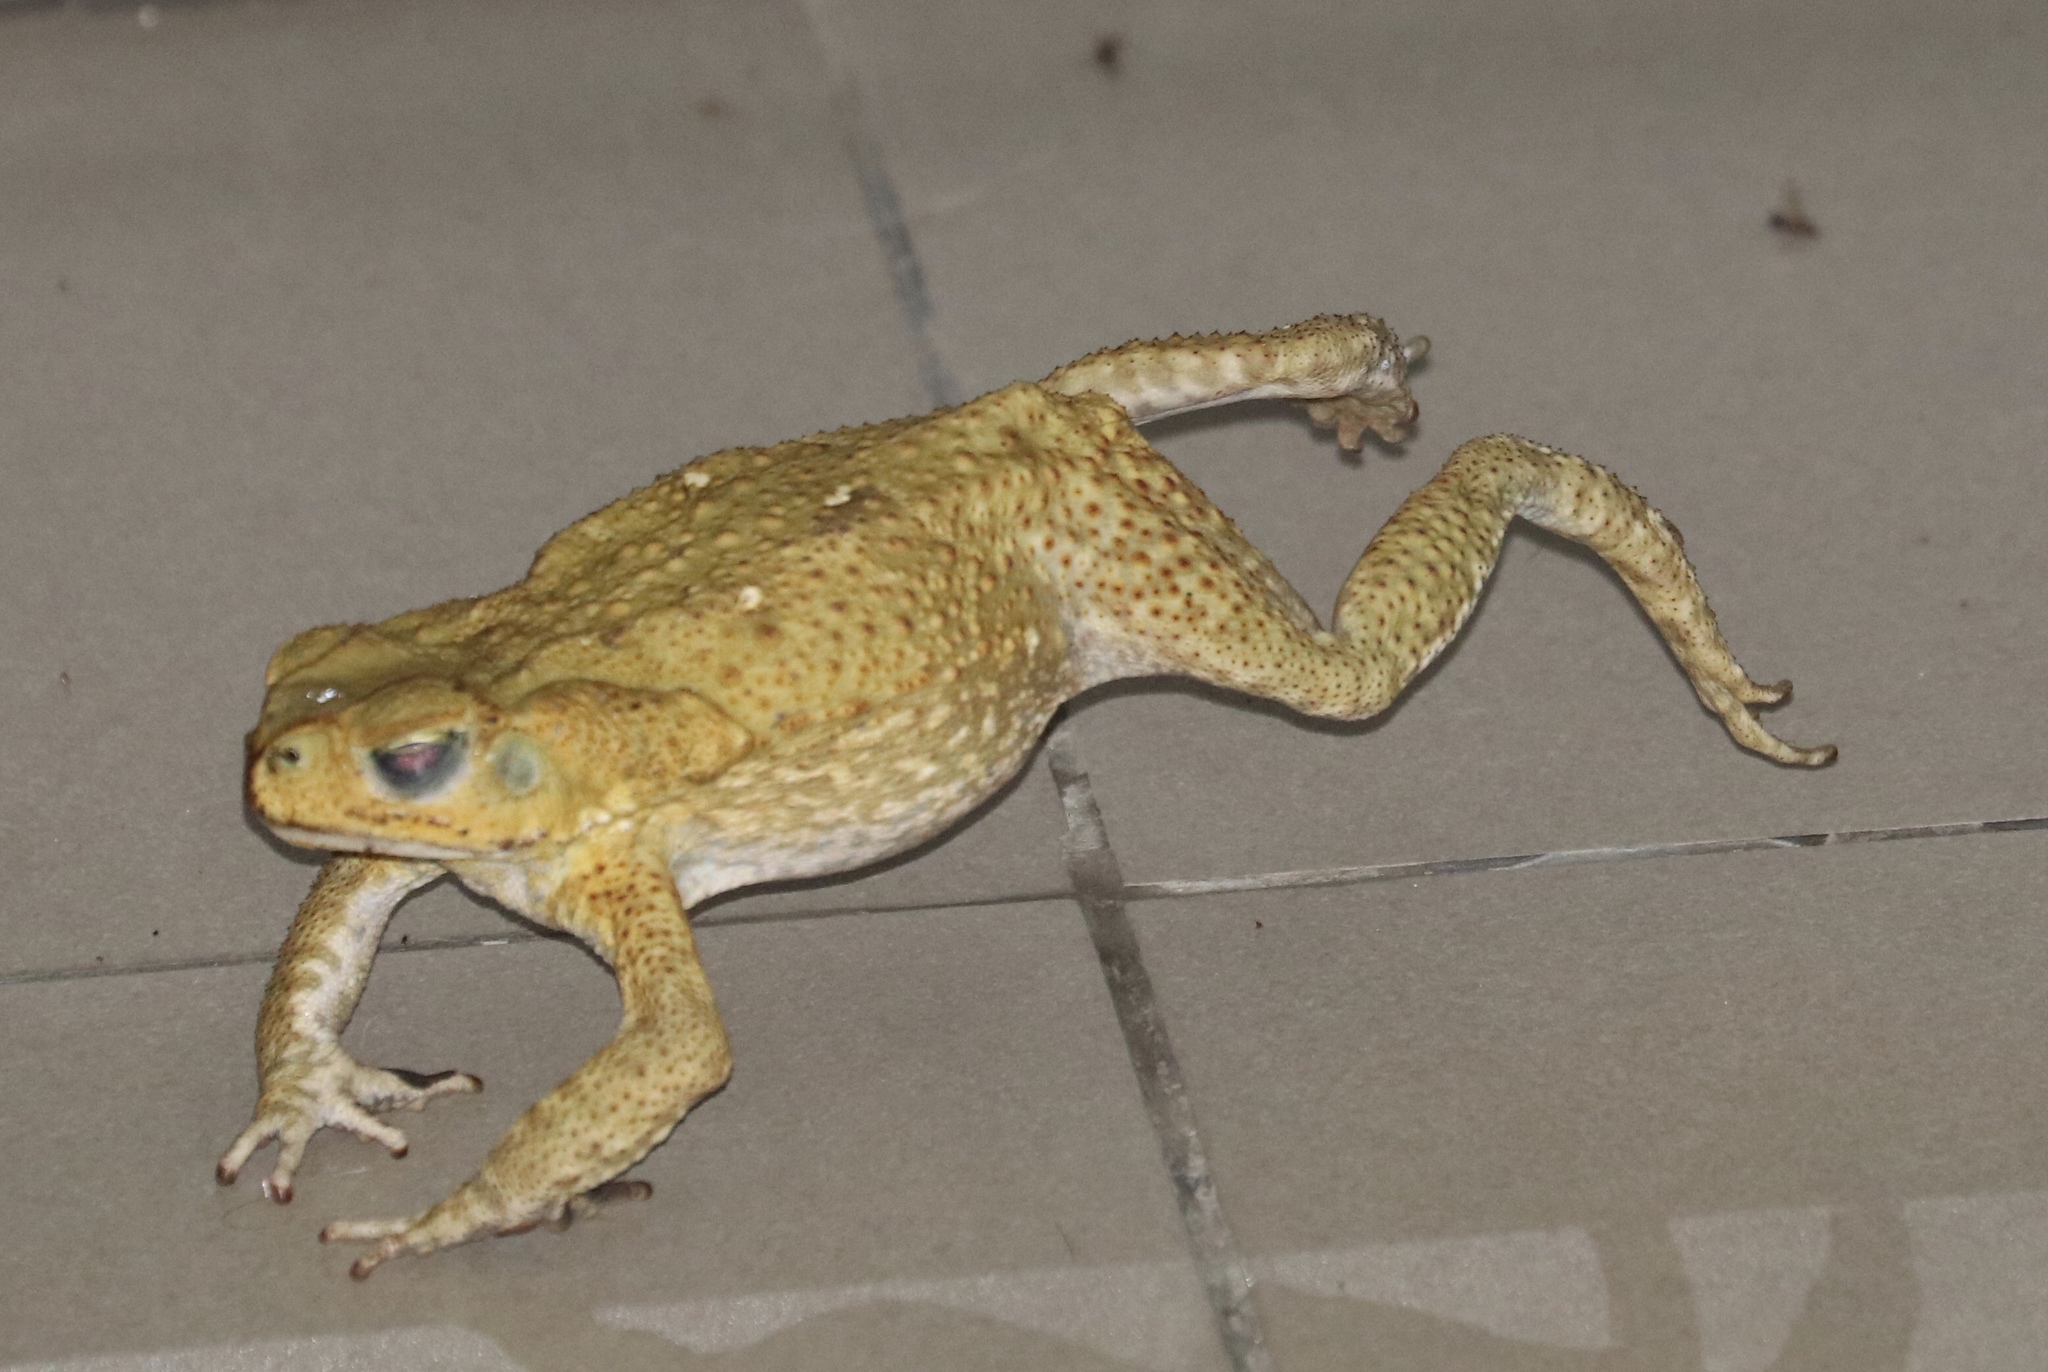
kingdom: Animalia
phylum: Chordata
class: Amphibia
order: Anura
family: Bufonidae
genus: Rhinella
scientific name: Rhinella horribilis
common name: Mesoamerican cane toad
